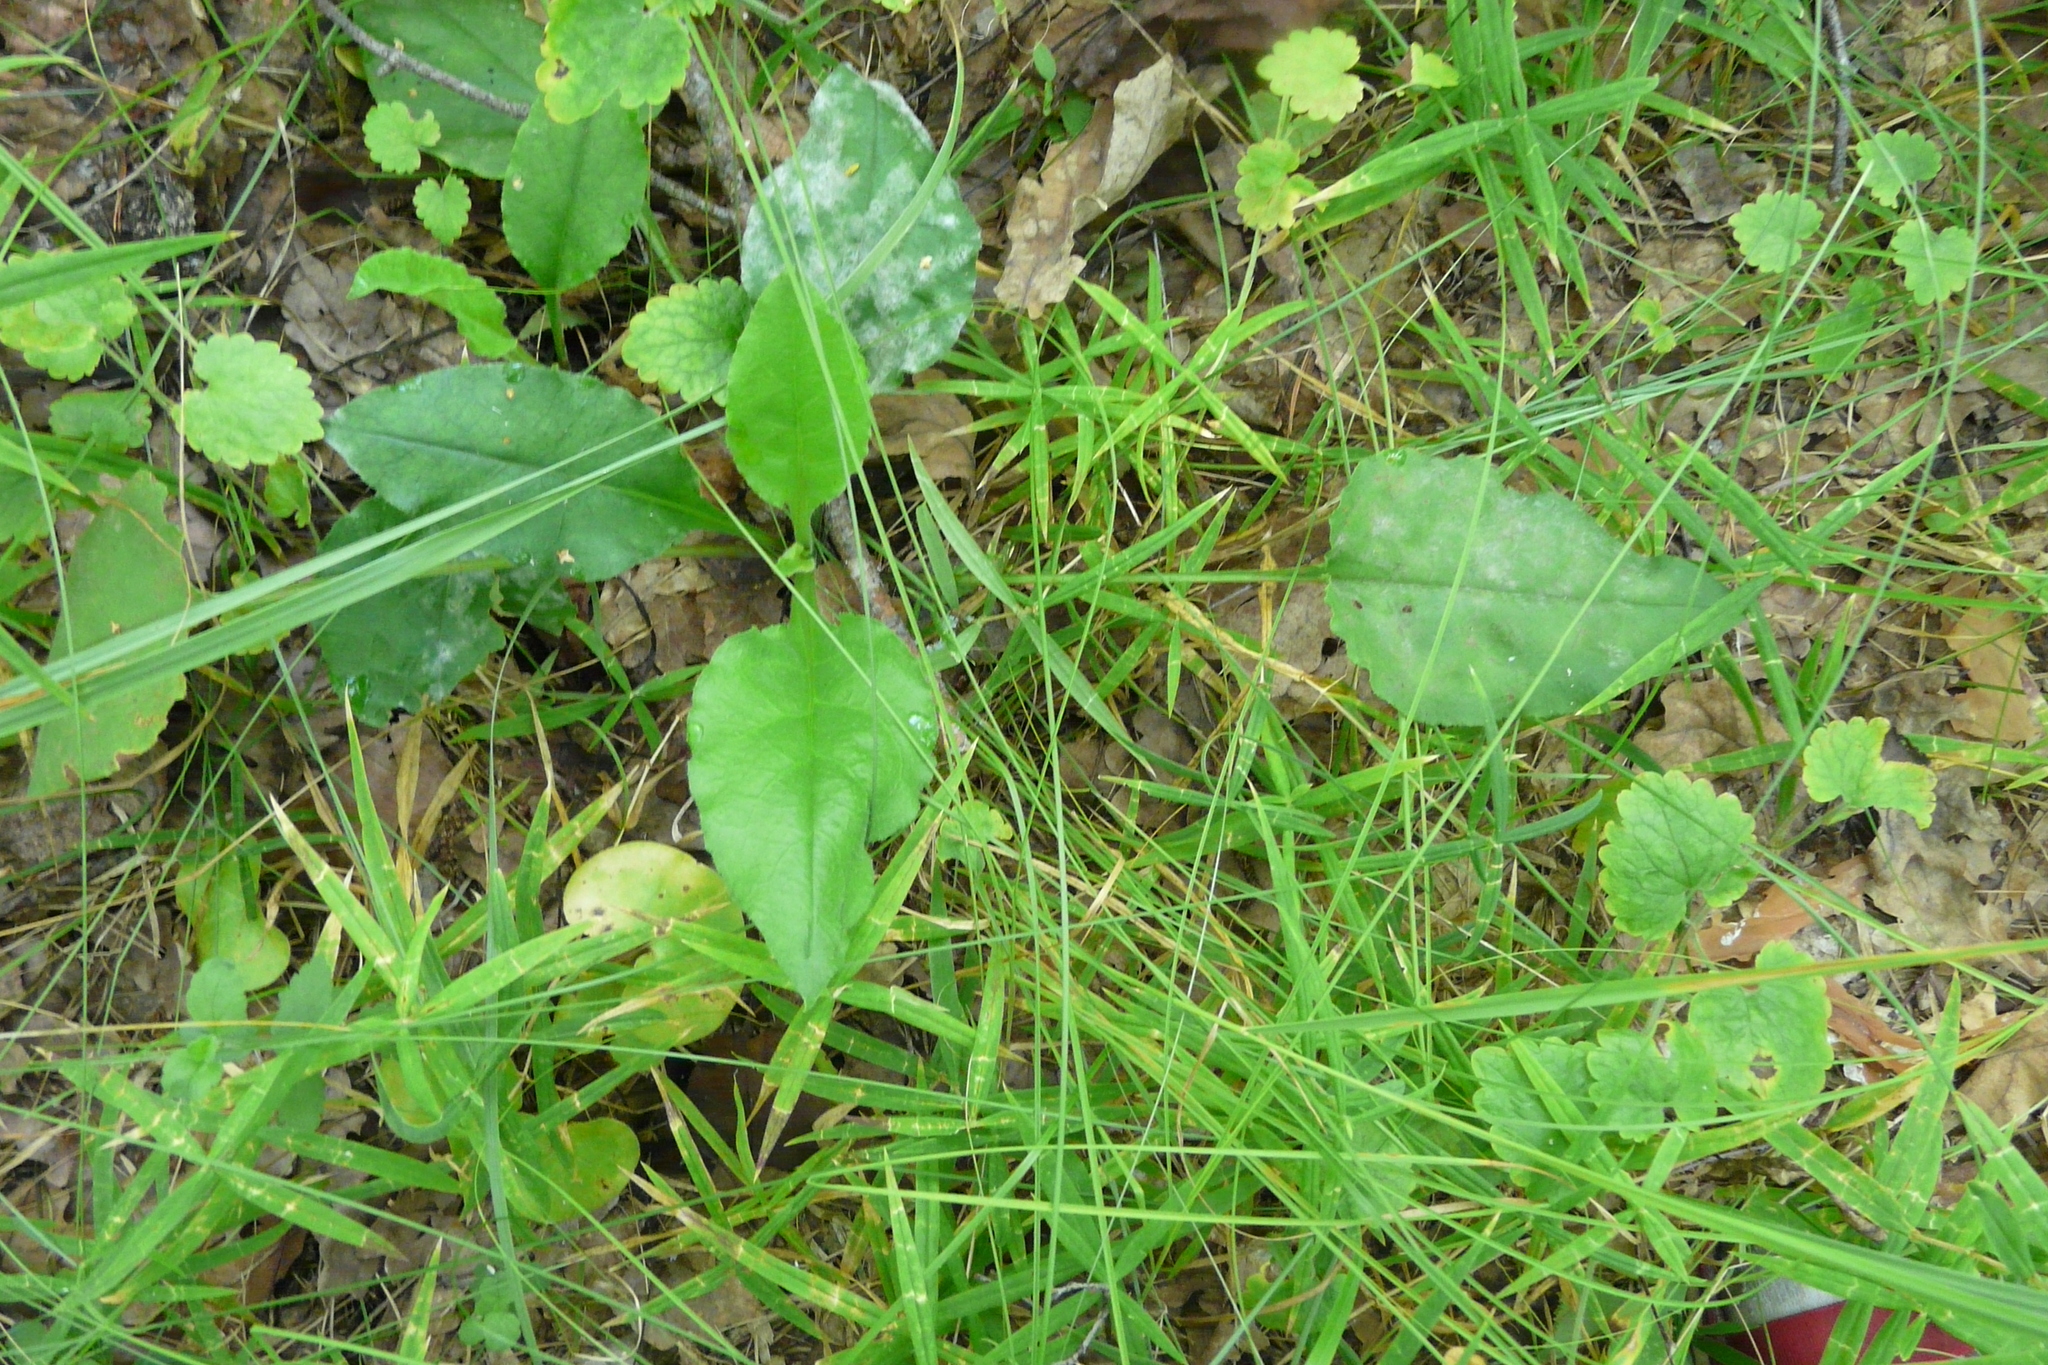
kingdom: Plantae
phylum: Tracheophyta
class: Magnoliopsida
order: Boraginales
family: Boraginaceae
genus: Pulmonaria
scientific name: Pulmonaria obscura
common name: Suffolk lungwort
